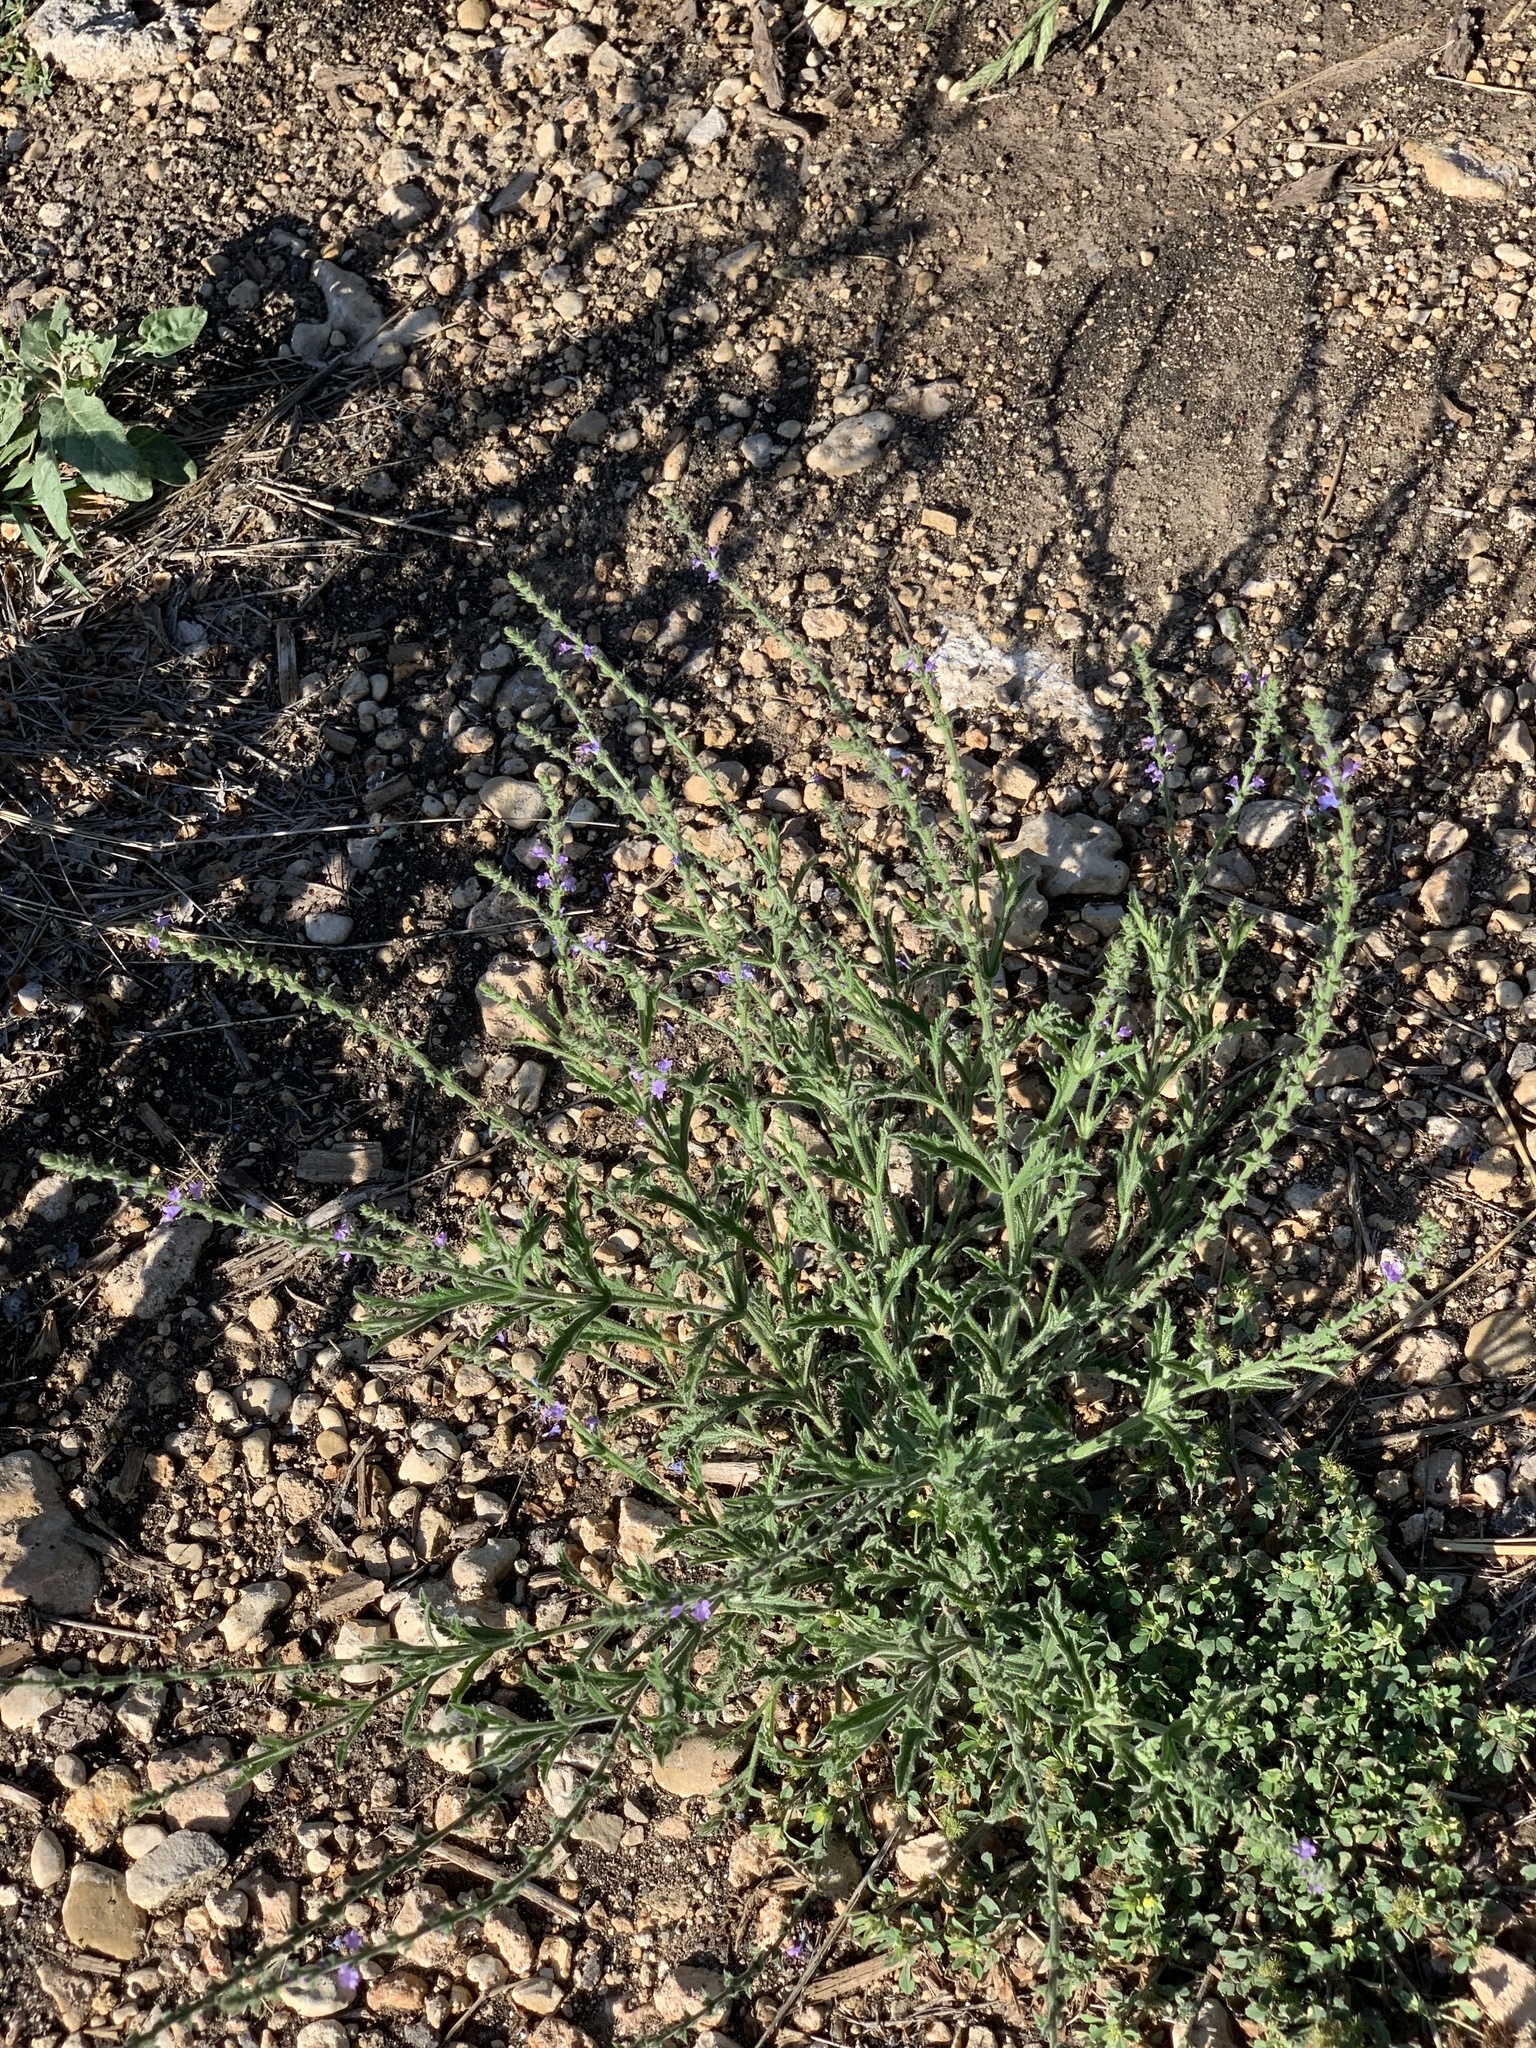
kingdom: Plantae
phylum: Tracheophyta
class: Magnoliopsida
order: Lamiales
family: Verbenaceae
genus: Verbena
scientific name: Verbena xutha
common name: Gulf vervain
